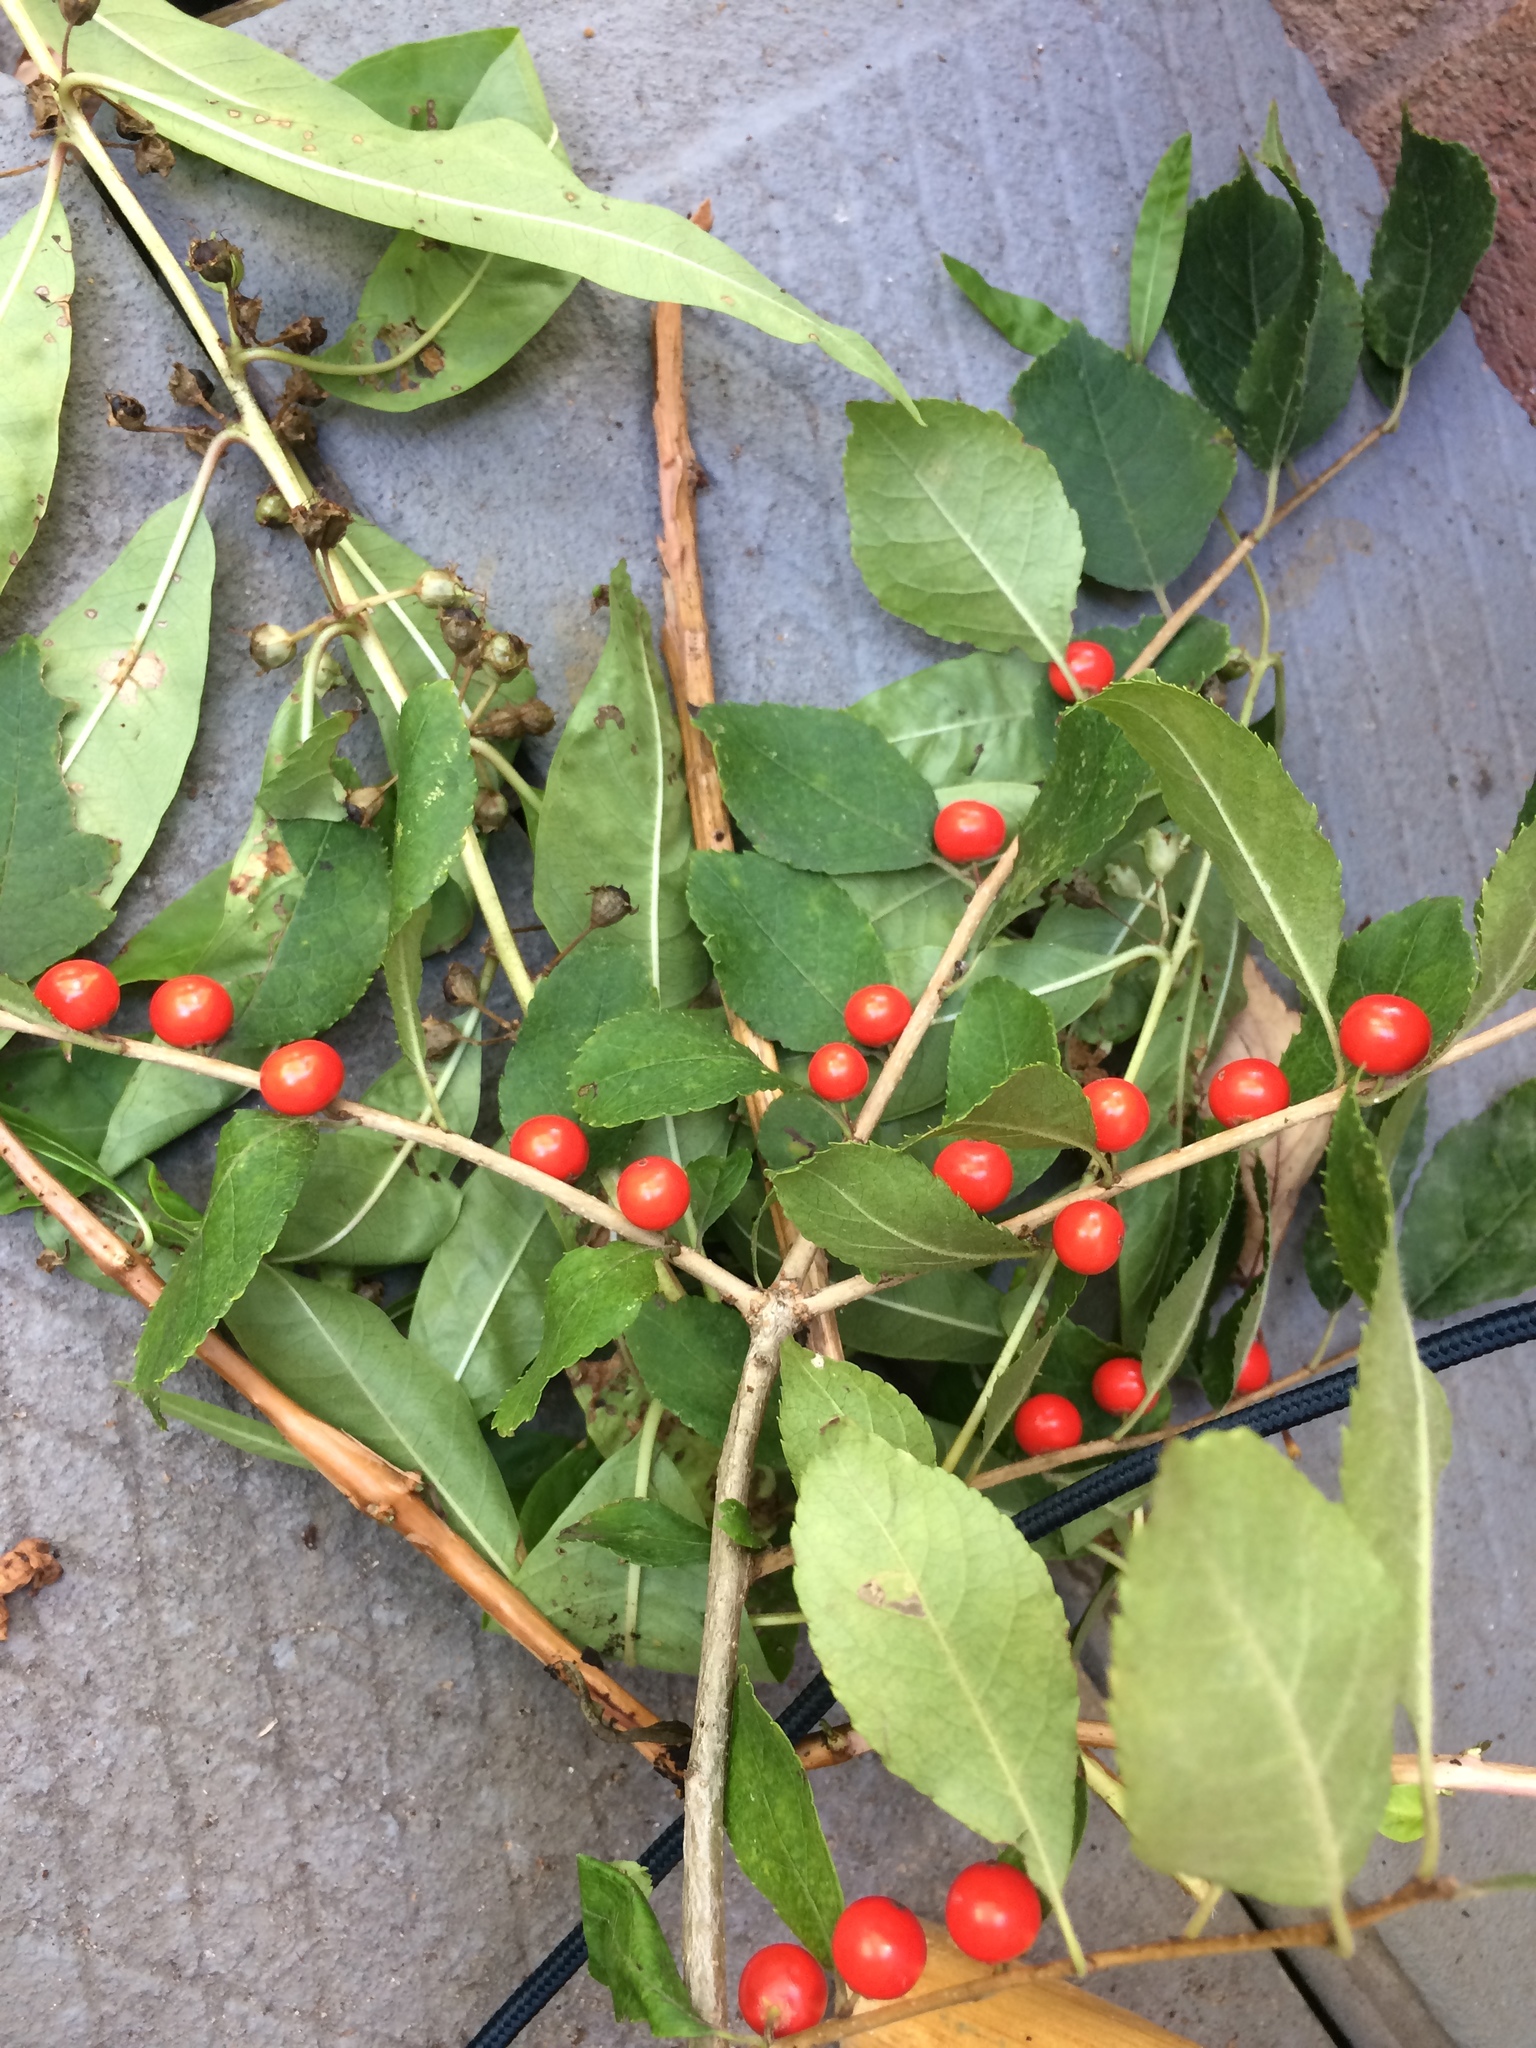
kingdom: Plantae
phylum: Tracheophyta
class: Magnoliopsida
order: Aquifoliales
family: Aquifoliaceae
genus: Ilex
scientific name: Ilex verticillata
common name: Virginia winterberry
